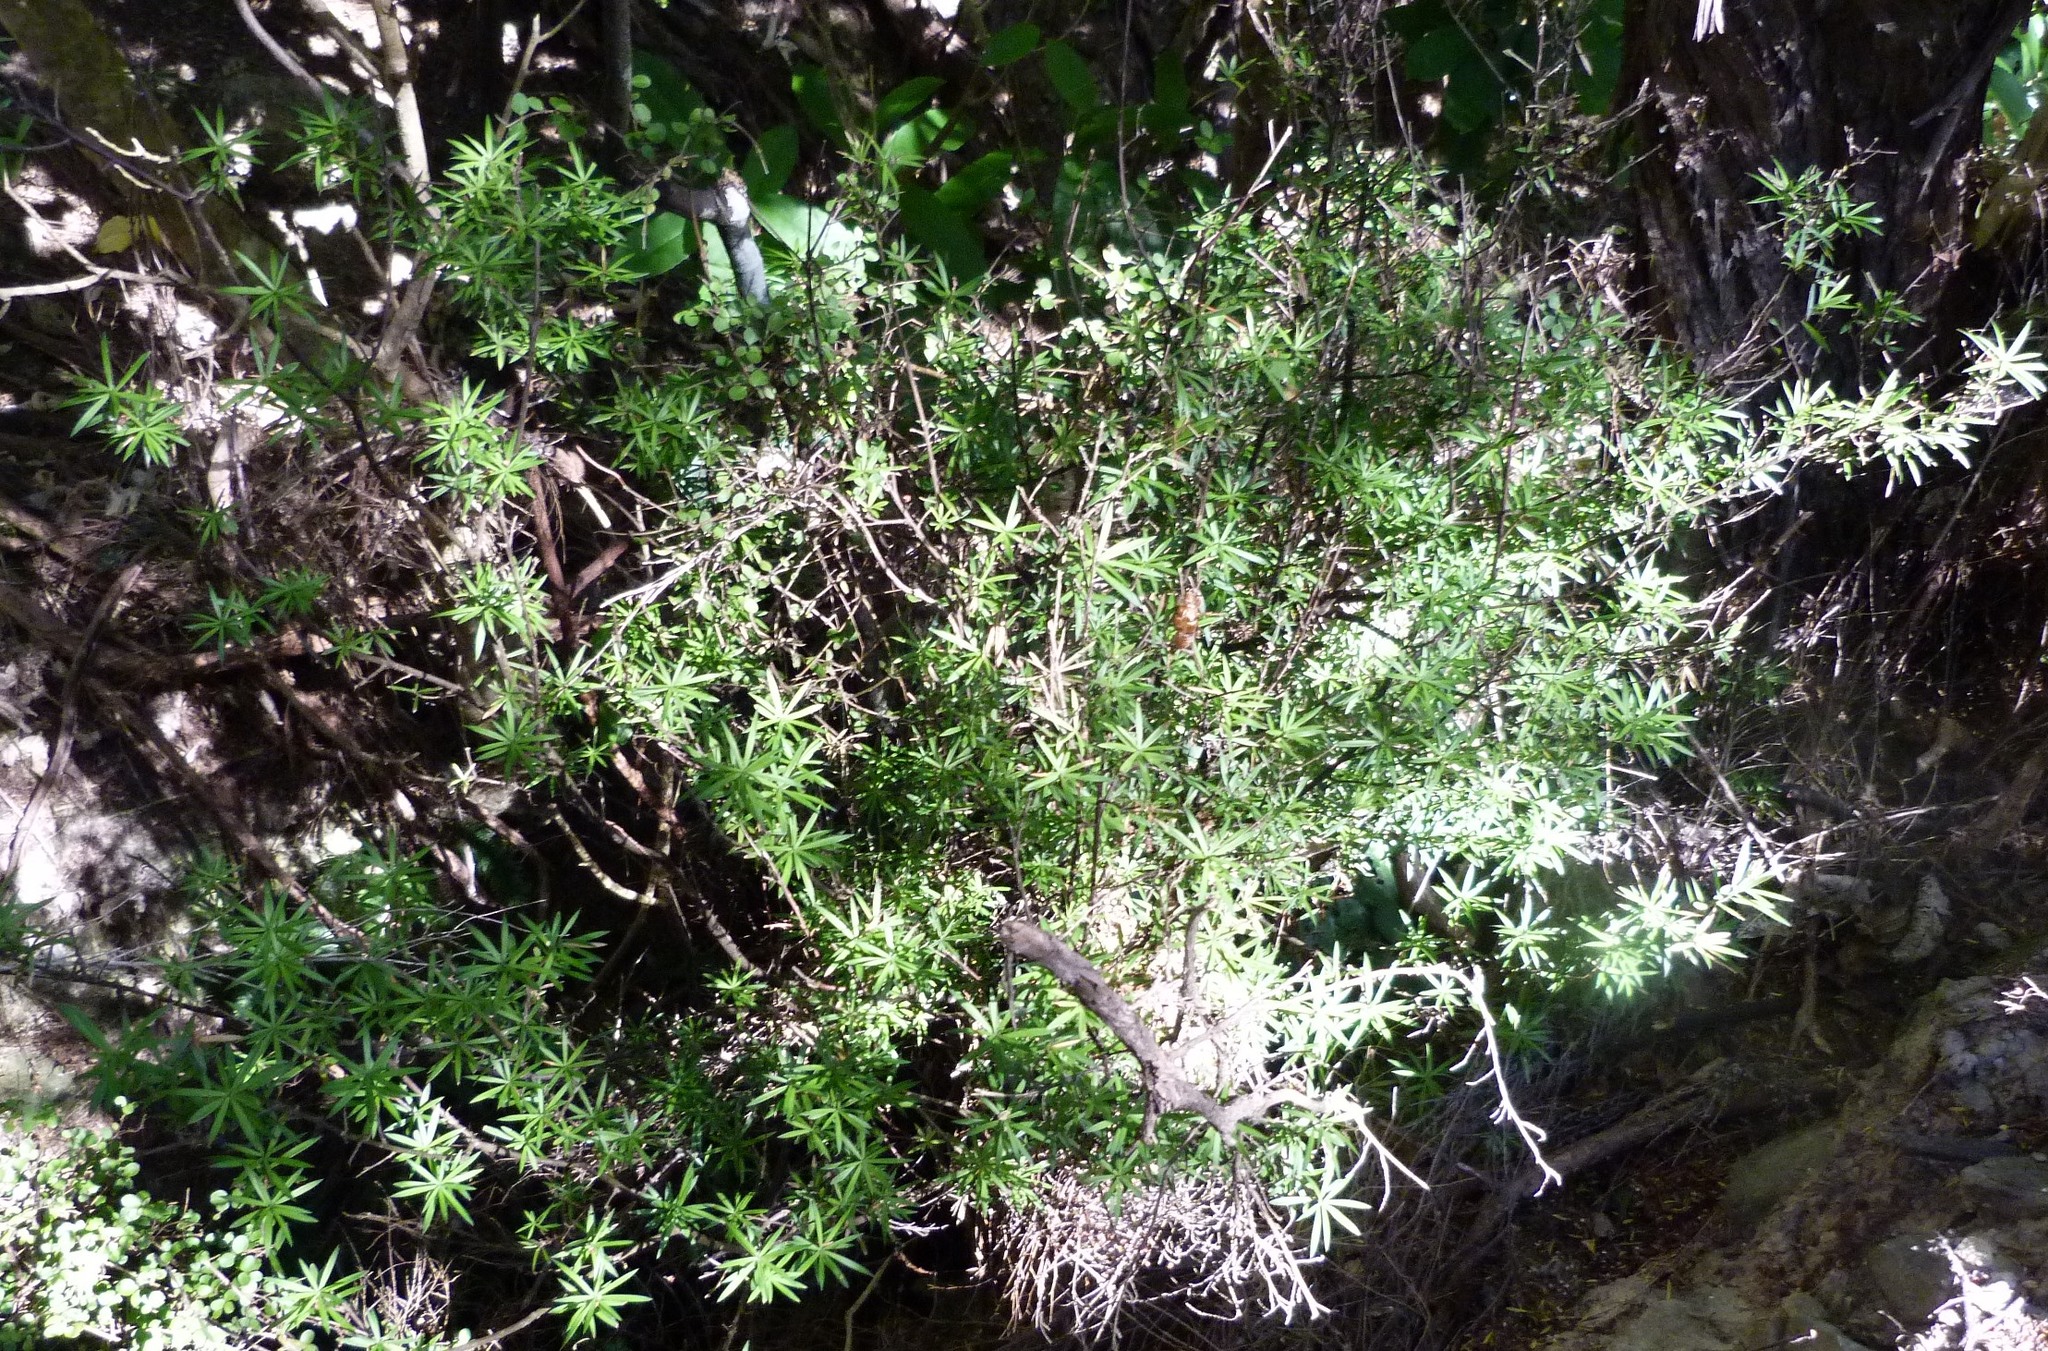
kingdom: Plantae
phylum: Tracheophyta
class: Magnoliopsida
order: Ericales
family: Ericaceae
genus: Leucopogon
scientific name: Leucopogon fasciculatus
